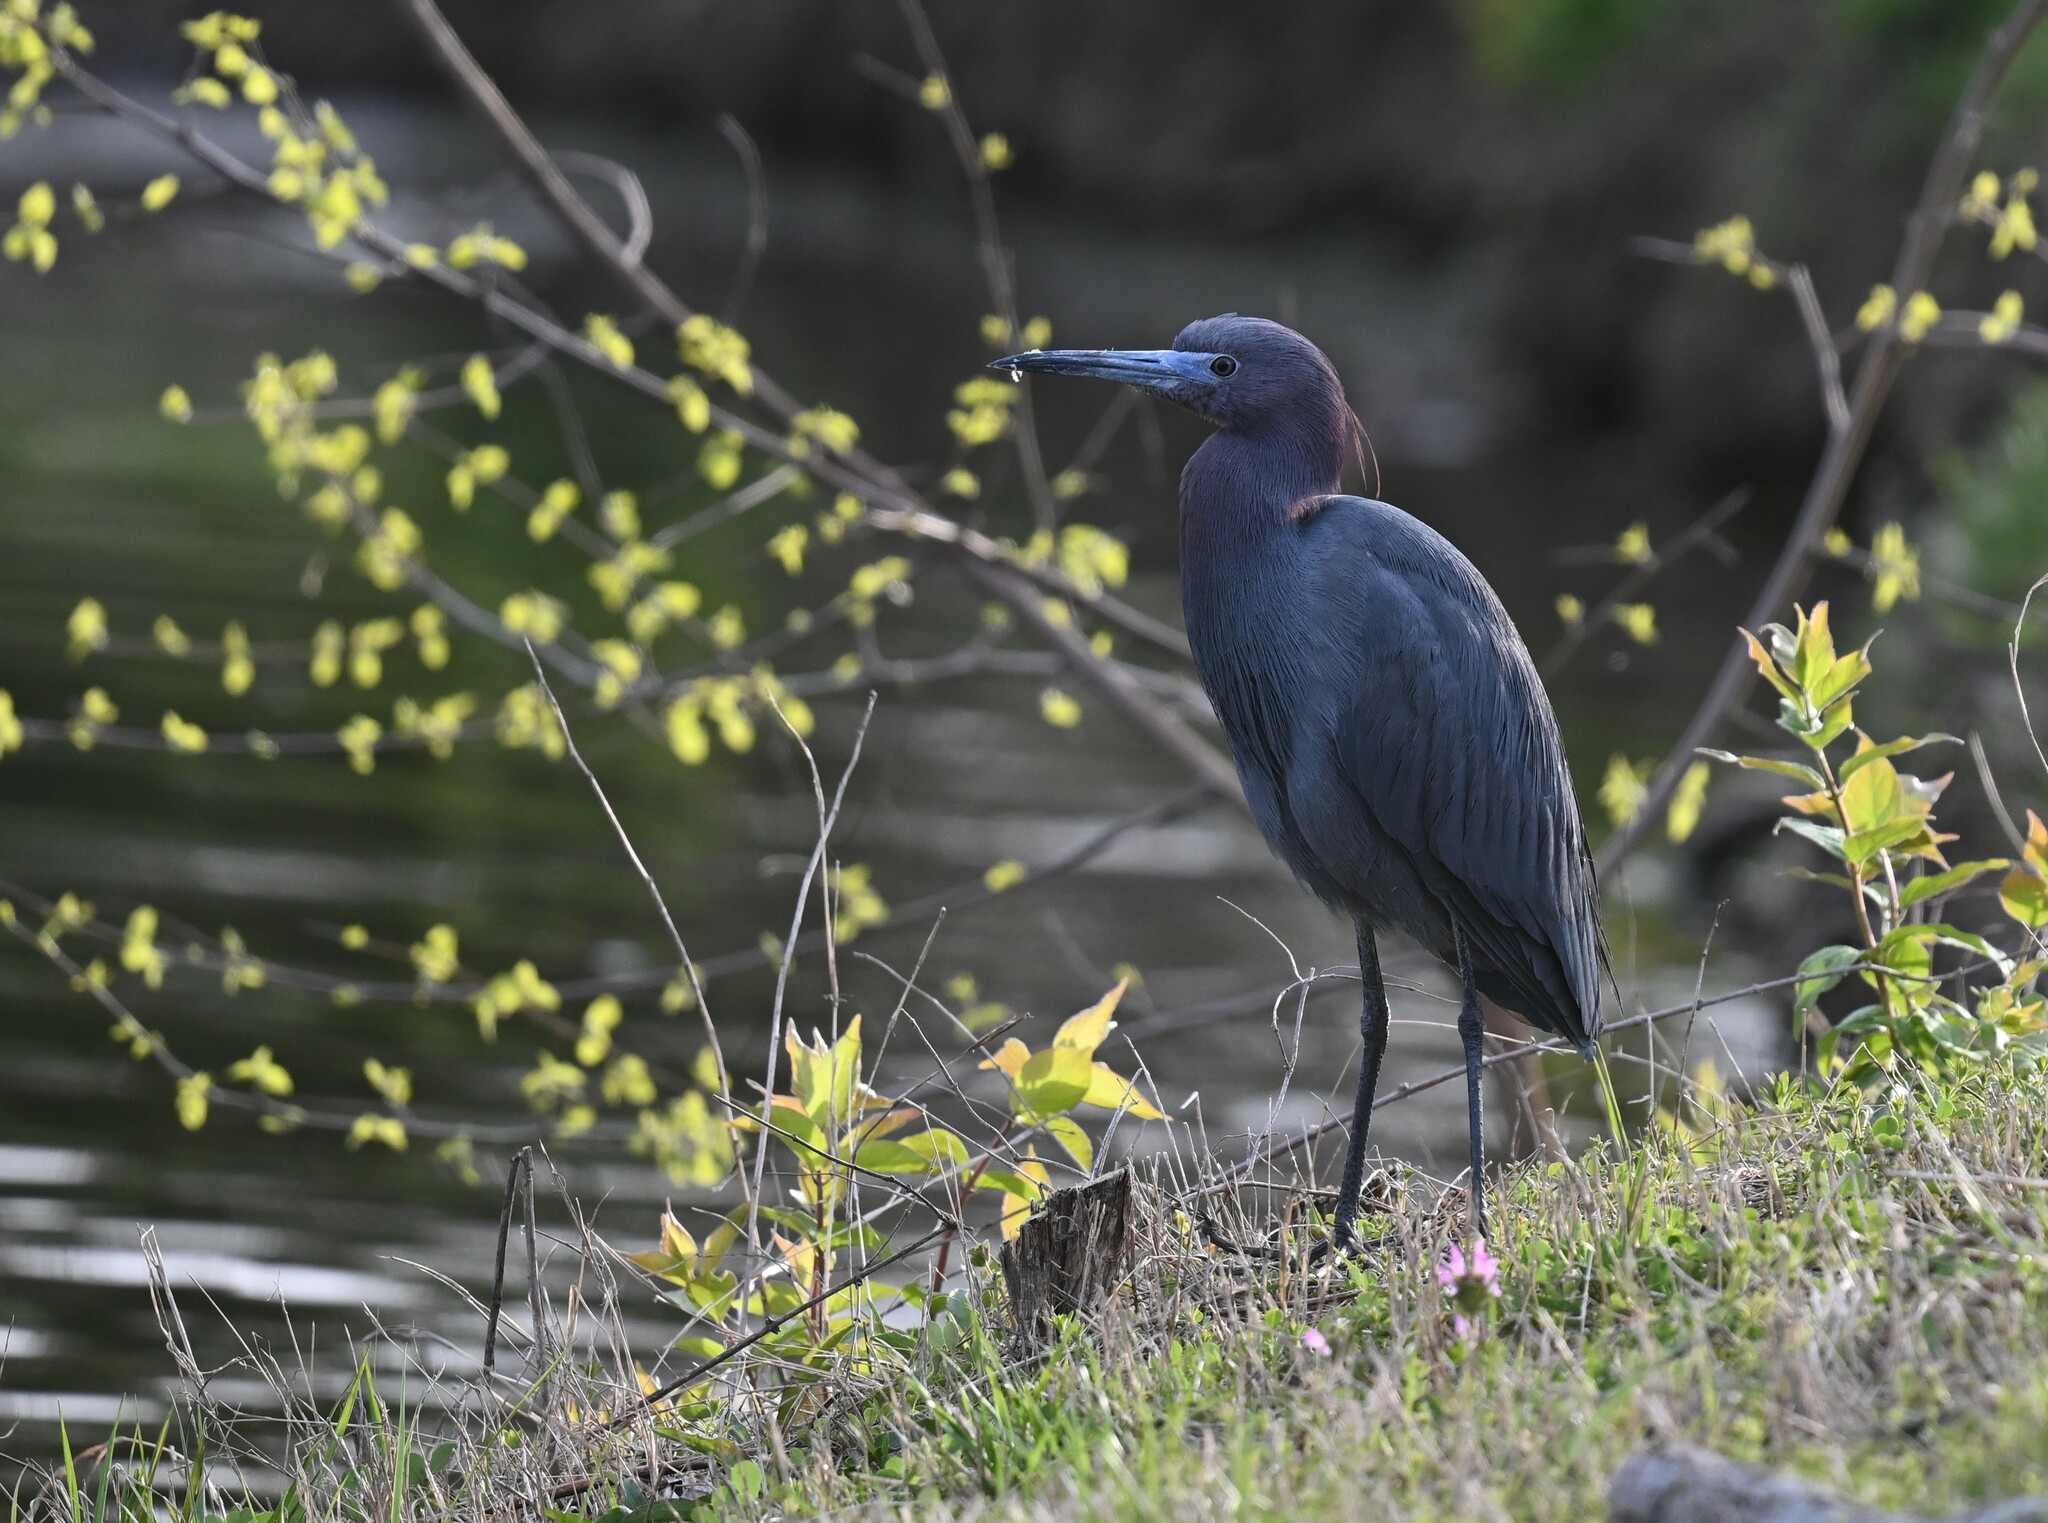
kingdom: Animalia
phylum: Chordata
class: Aves
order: Pelecaniformes
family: Ardeidae
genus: Egretta
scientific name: Egretta caerulea
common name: Little blue heron
